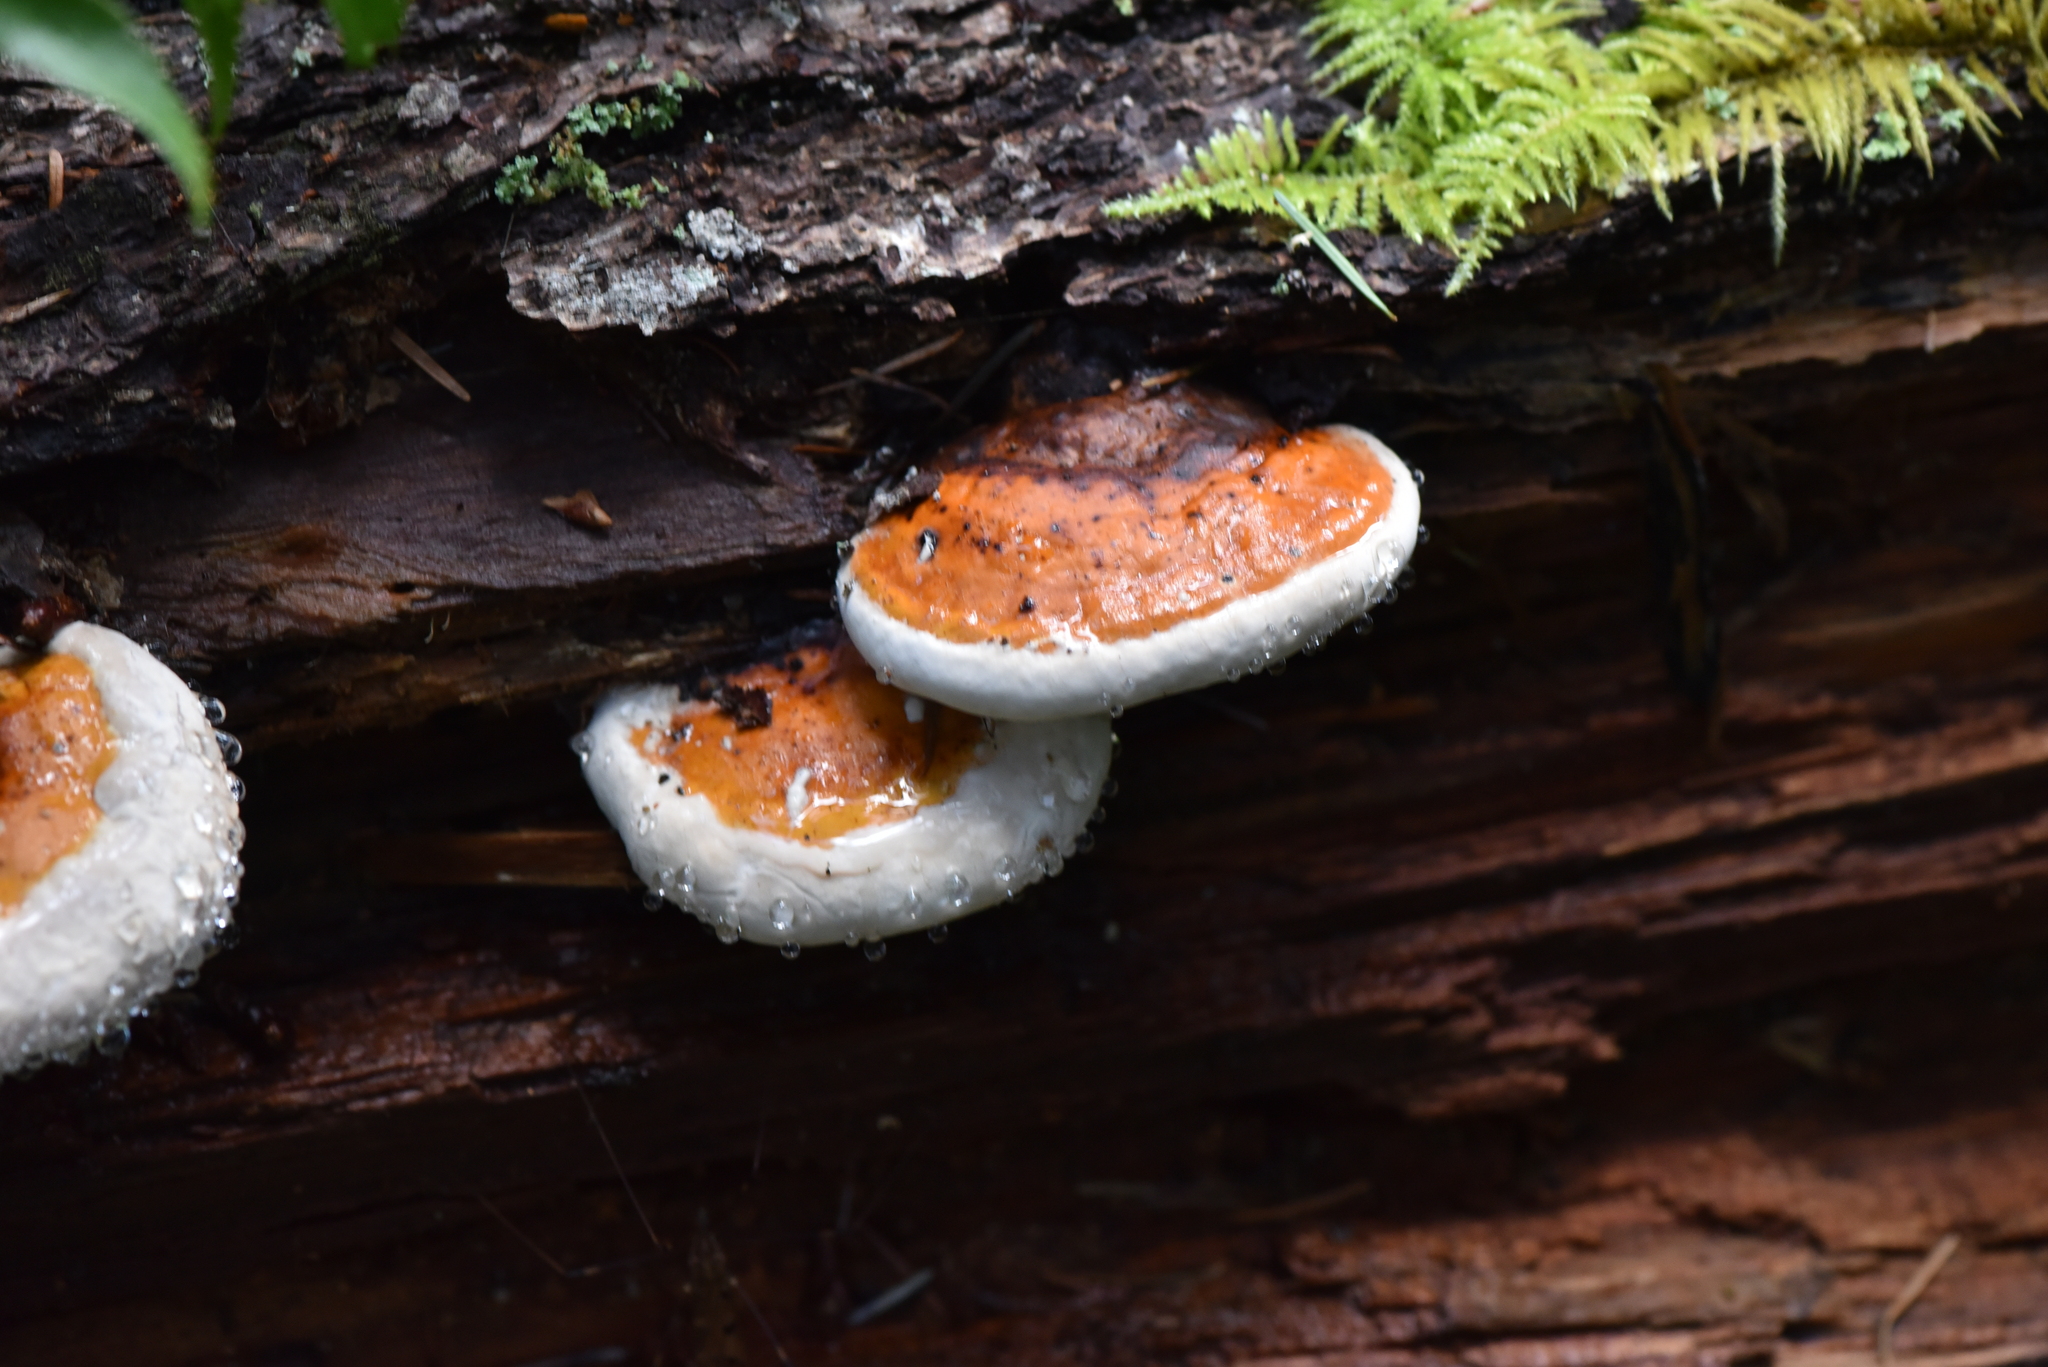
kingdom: Fungi
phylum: Basidiomycota
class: Agaricomycetes
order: Polyporales
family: Fomitopsidaceae
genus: Fomitopsis
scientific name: Fomitopsis mounceae
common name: Northern red belt
